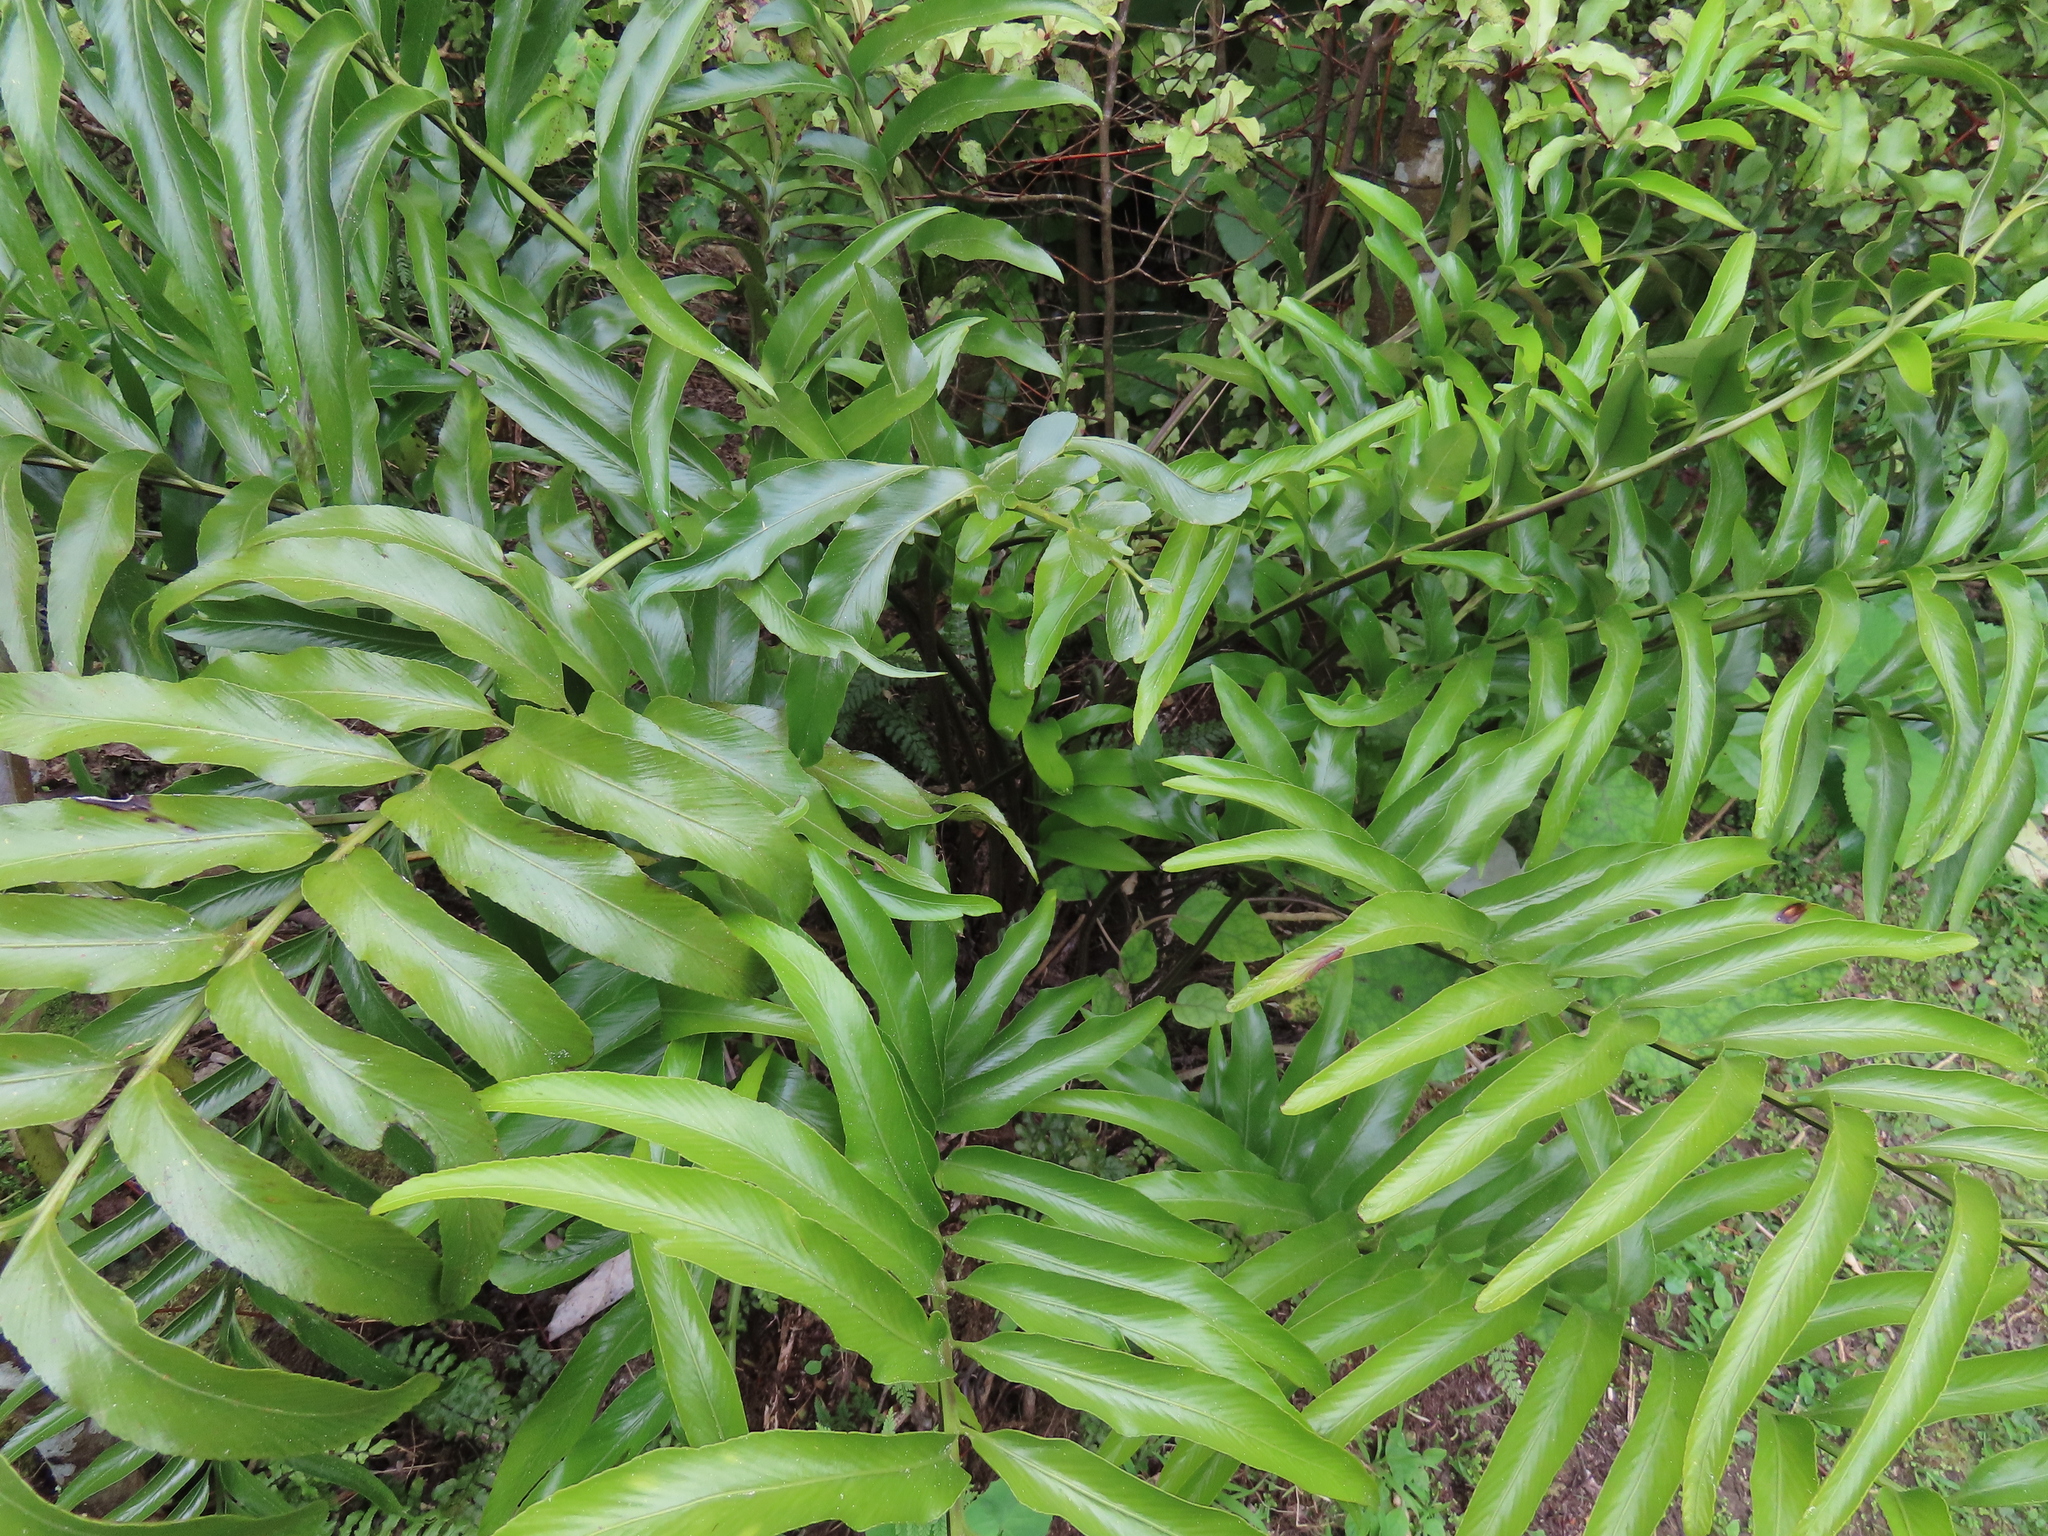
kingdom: Plantae
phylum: Tracheophyta
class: Polypodiopsida
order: Polypodiales
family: Aspleniaceae
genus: Asplenium
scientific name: Asplenium oblongifolium
